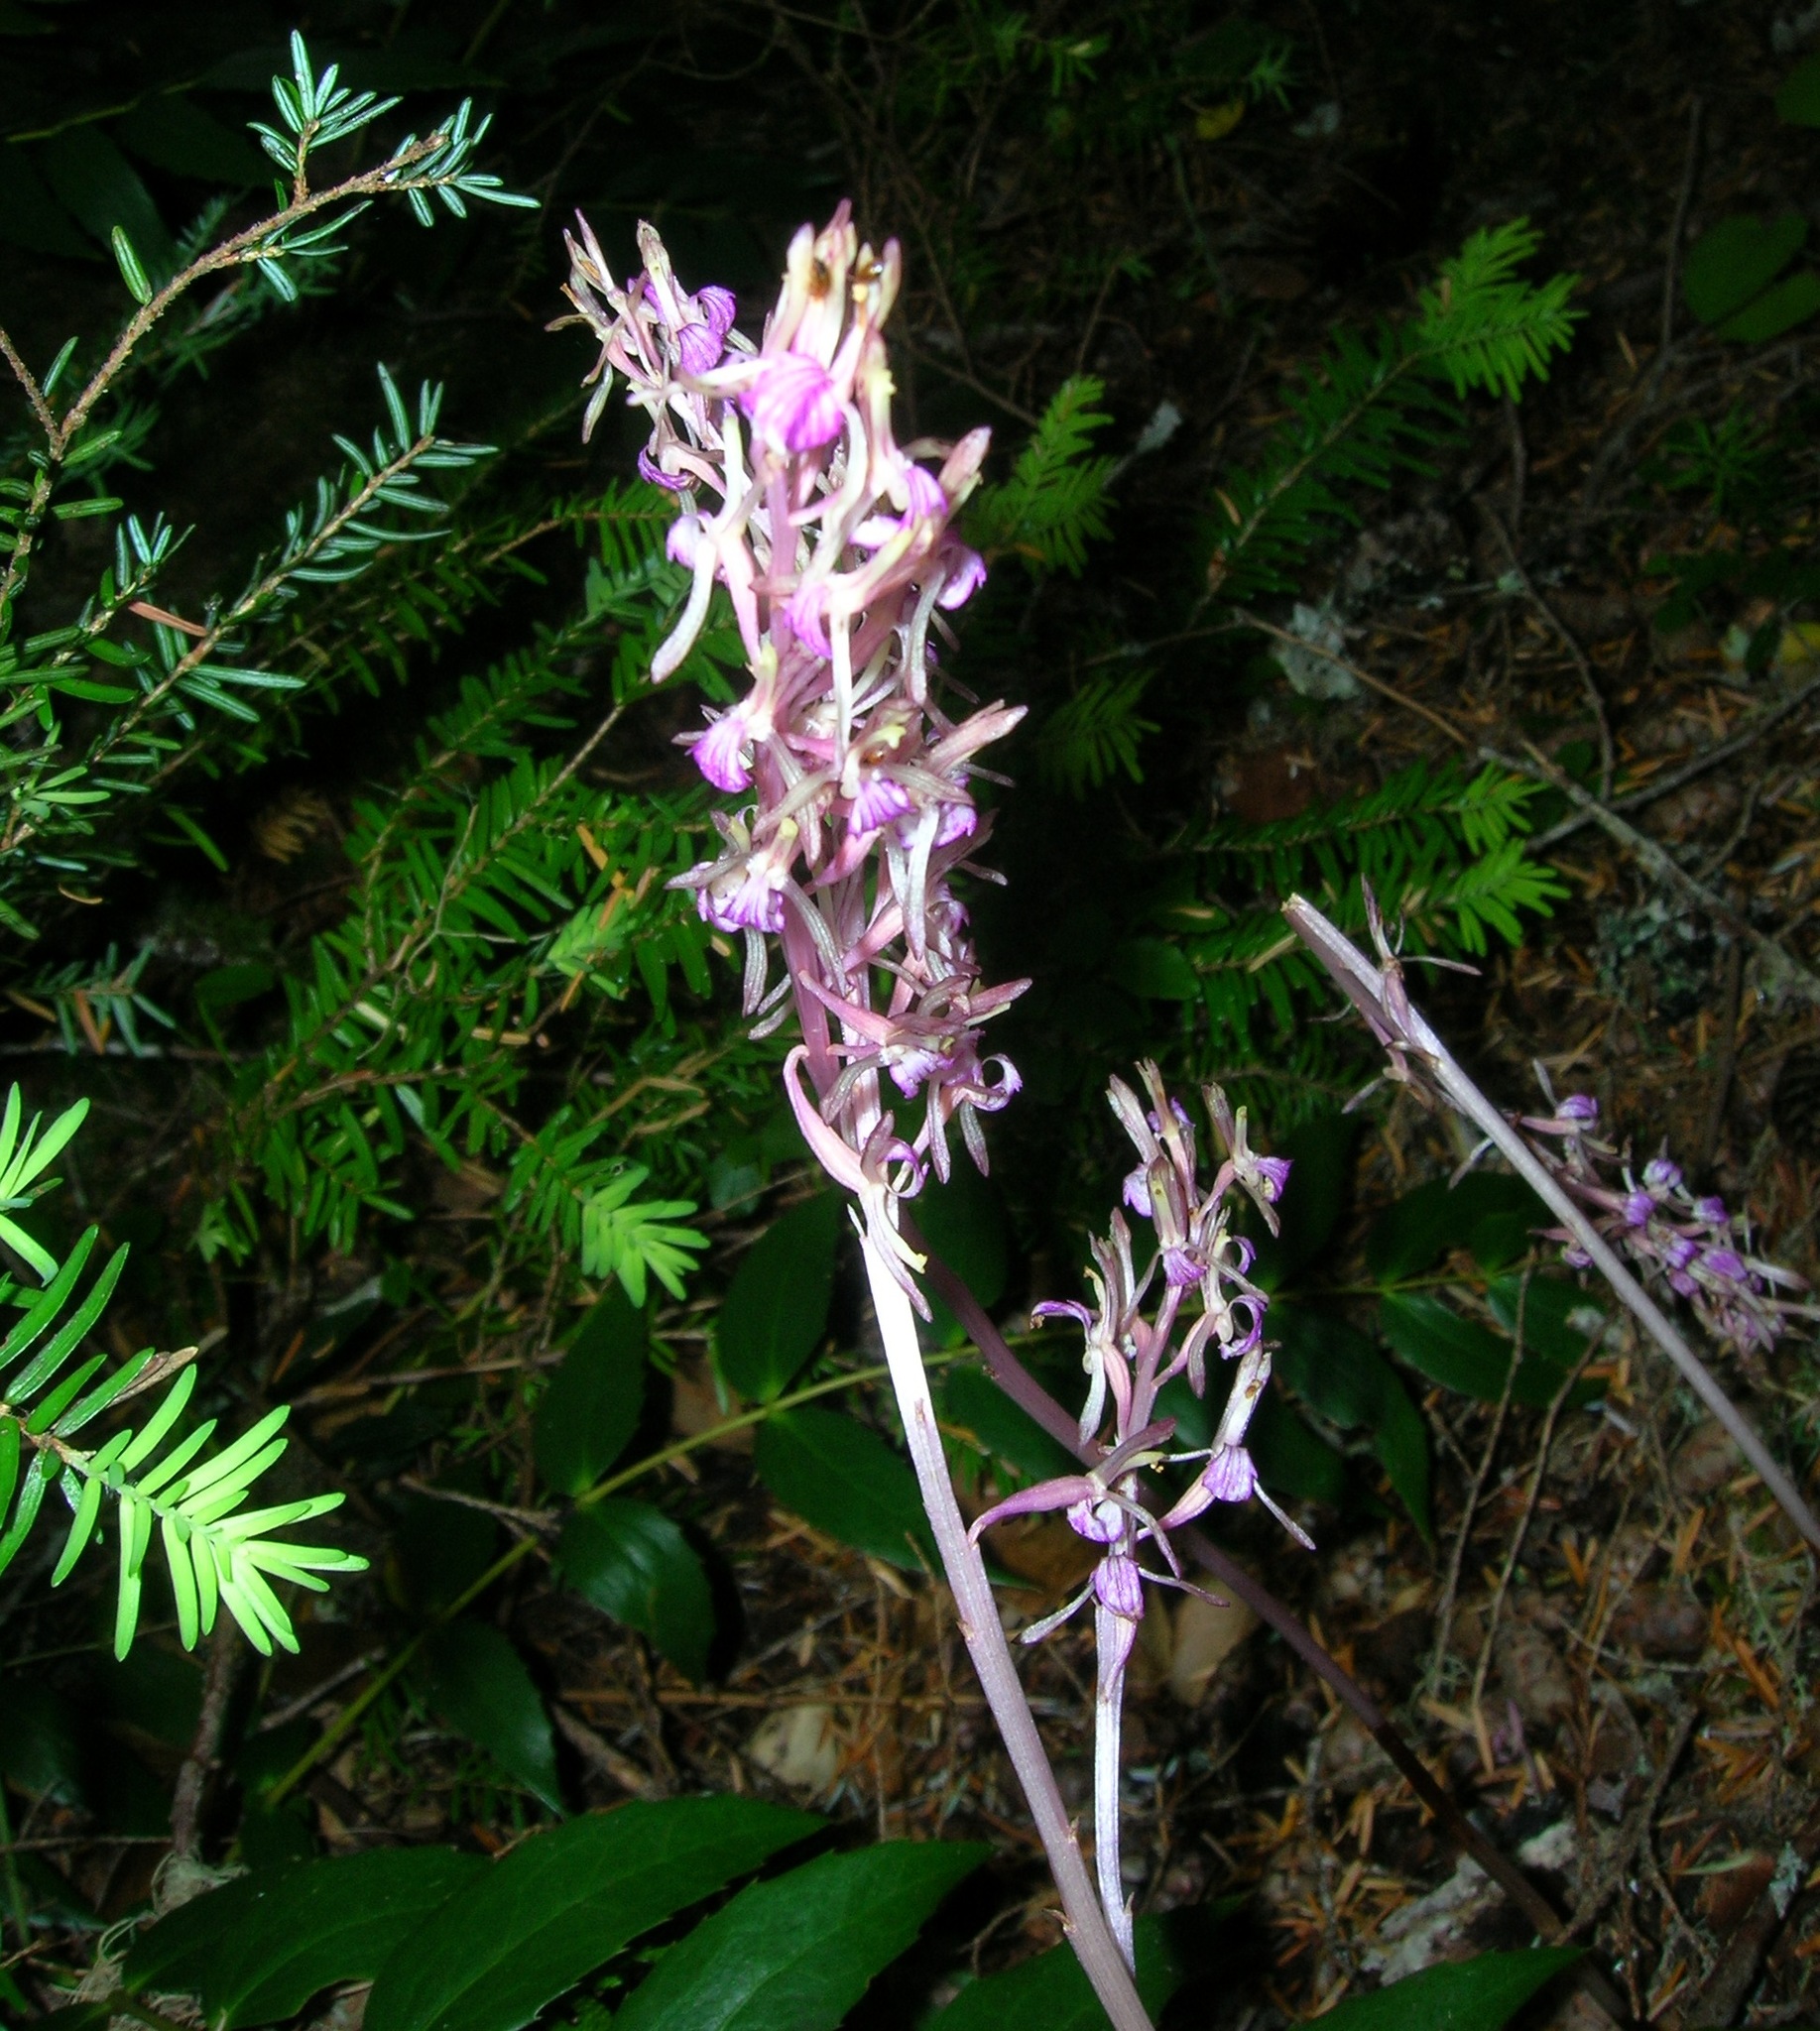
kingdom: Plantae
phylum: Tracheophyta
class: Liliopsida
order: Asparagales
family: Orchidaceae
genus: Corallorhiza
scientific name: Corallorhiza mertensiana
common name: Pacific coralroot
